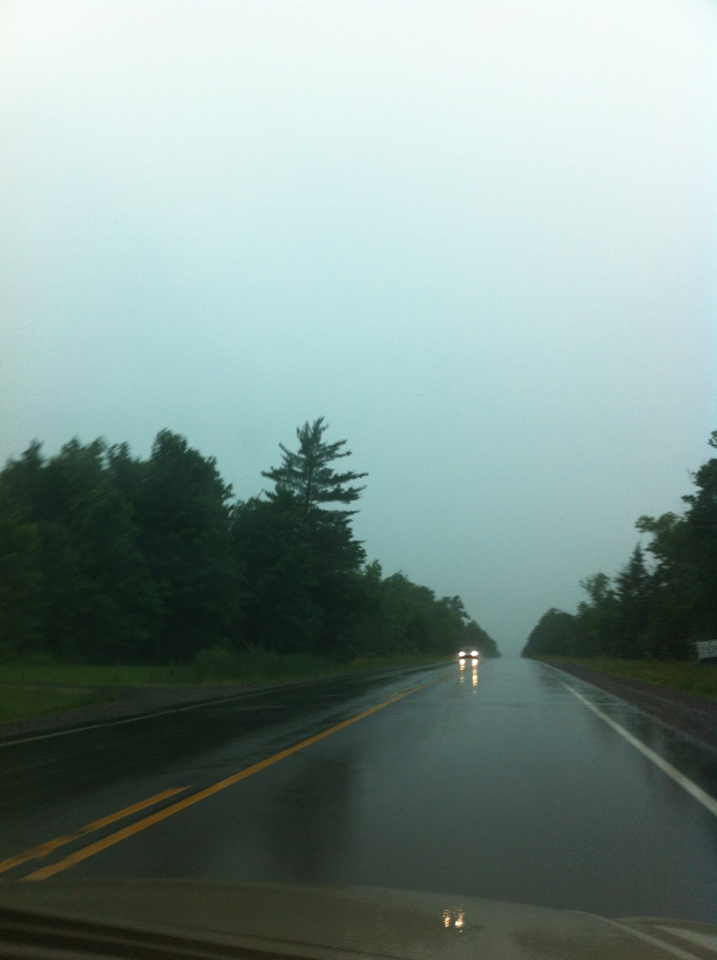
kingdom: Plantae
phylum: Tracheophyta
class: Pinopsida
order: Pinales
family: Pinaceae
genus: Pinus
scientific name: Pinus strobus
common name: Weymouth pine
